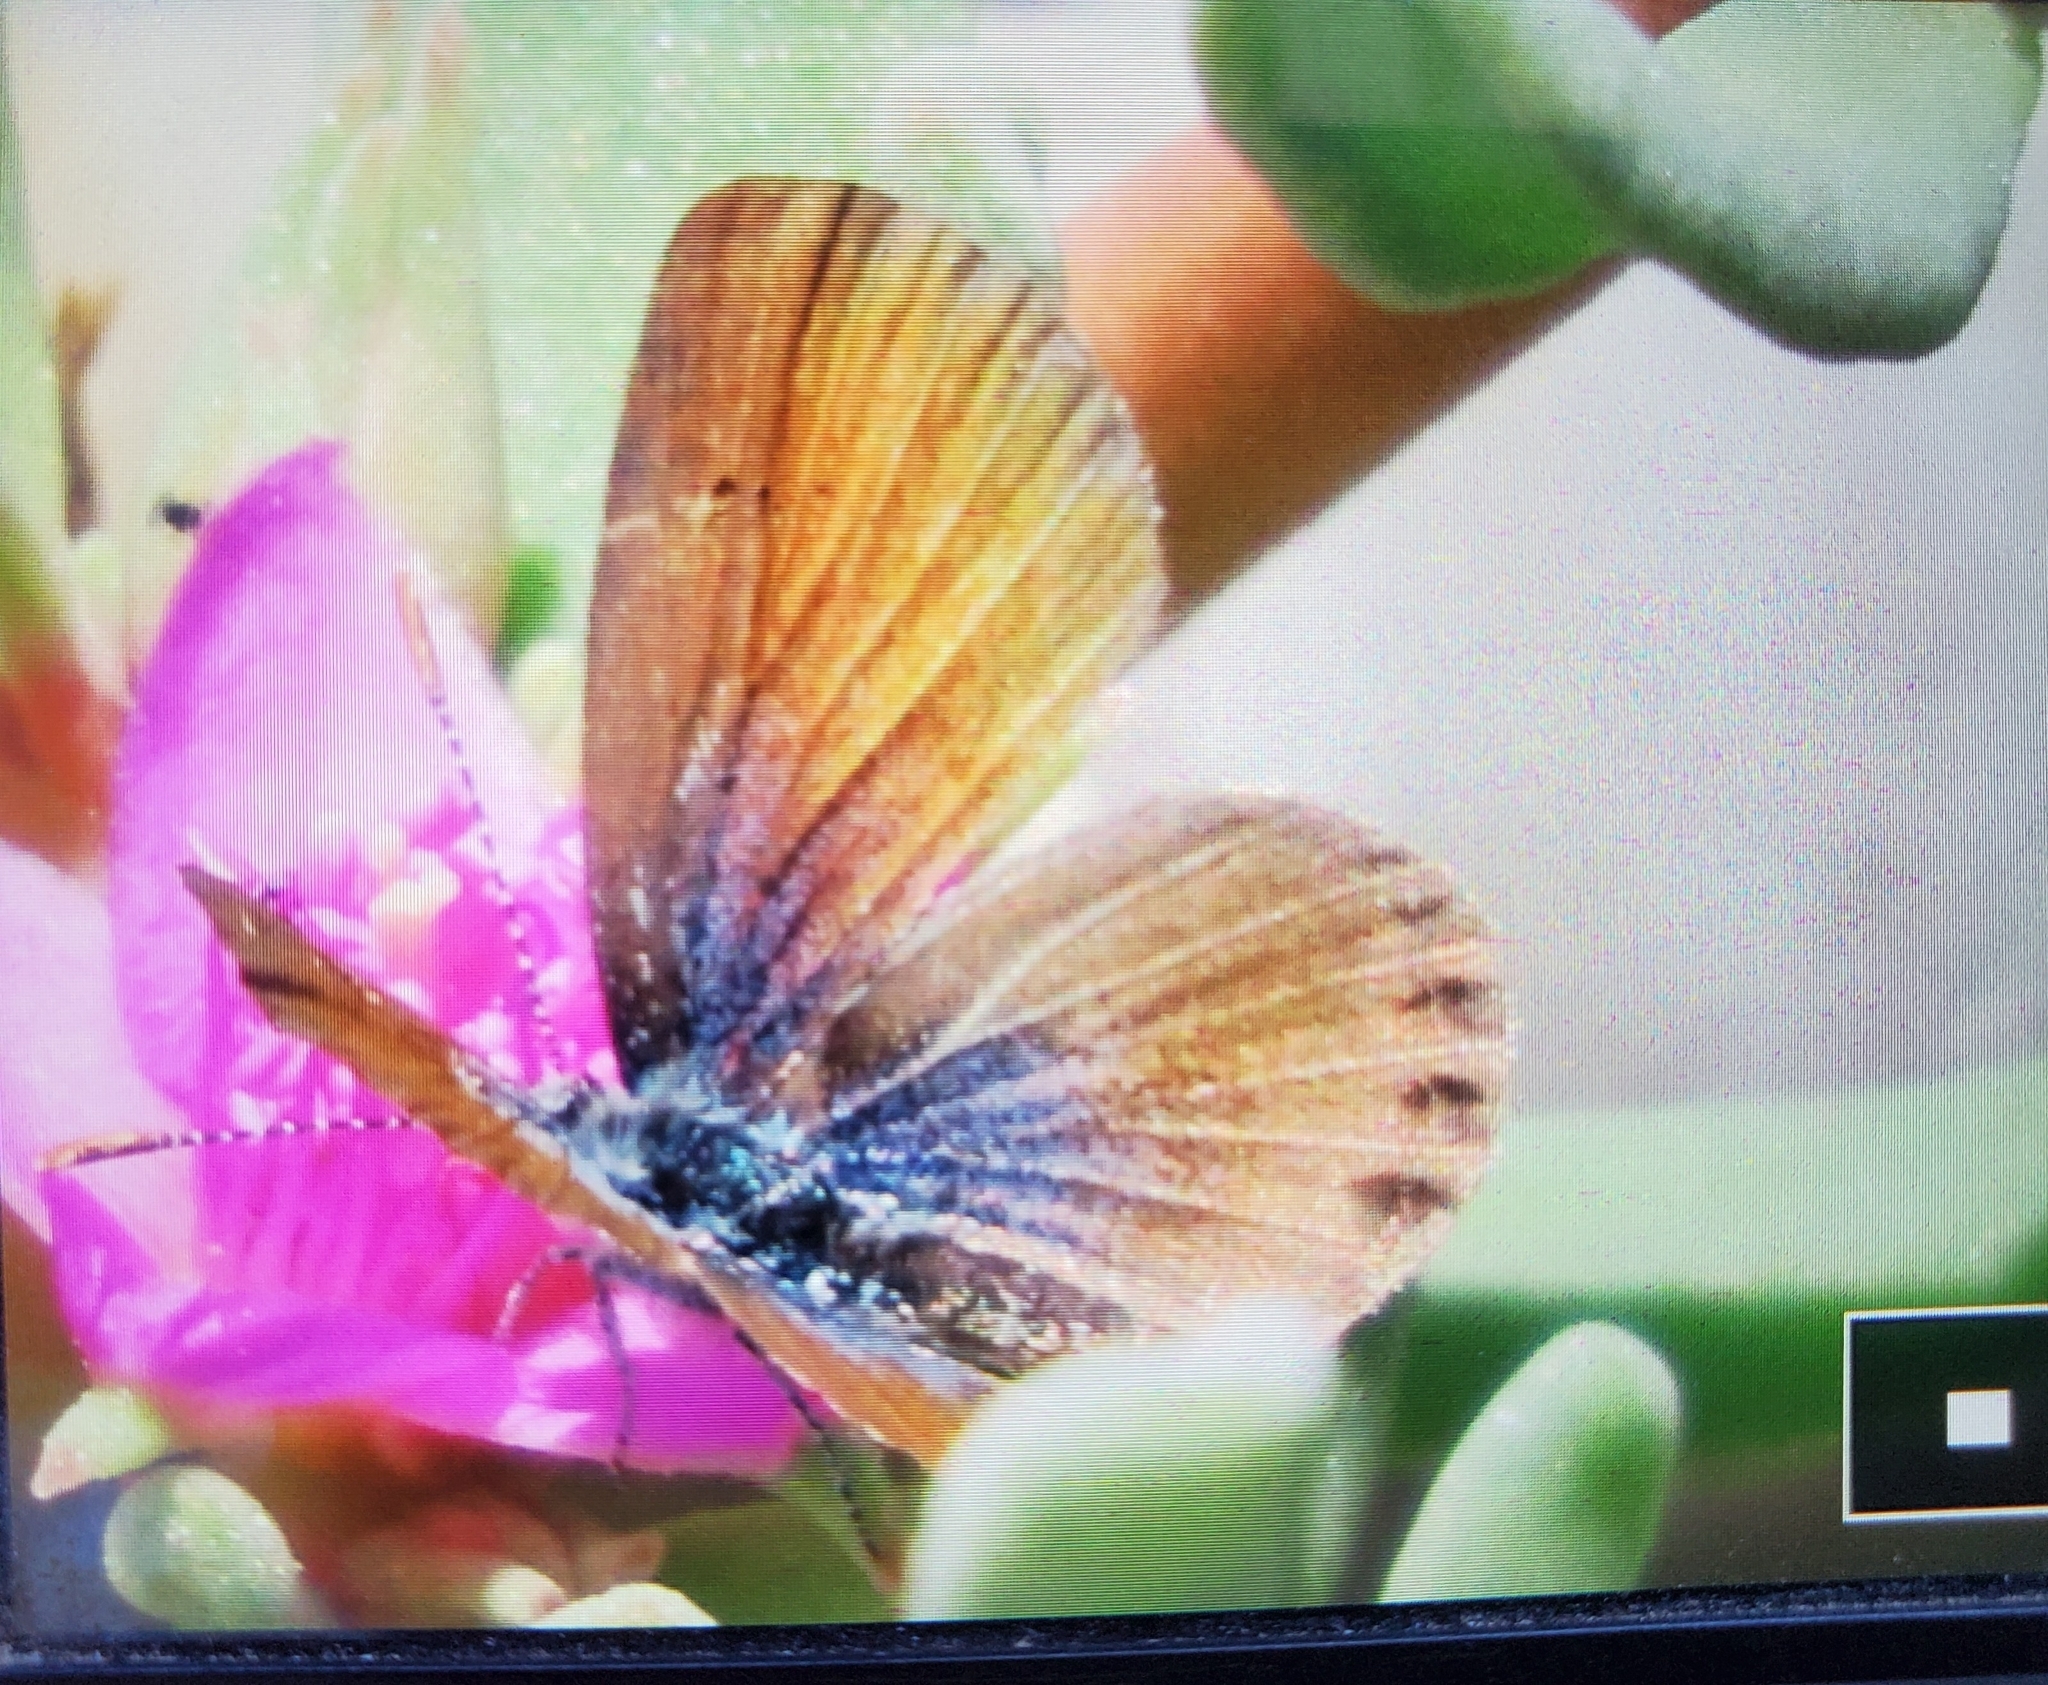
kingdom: Animalia
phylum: Arthropoda
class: Insecta
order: Lepidoptera
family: Lycaenidae
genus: Brephidium
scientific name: Brephidium exilis
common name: Pygmy blue
